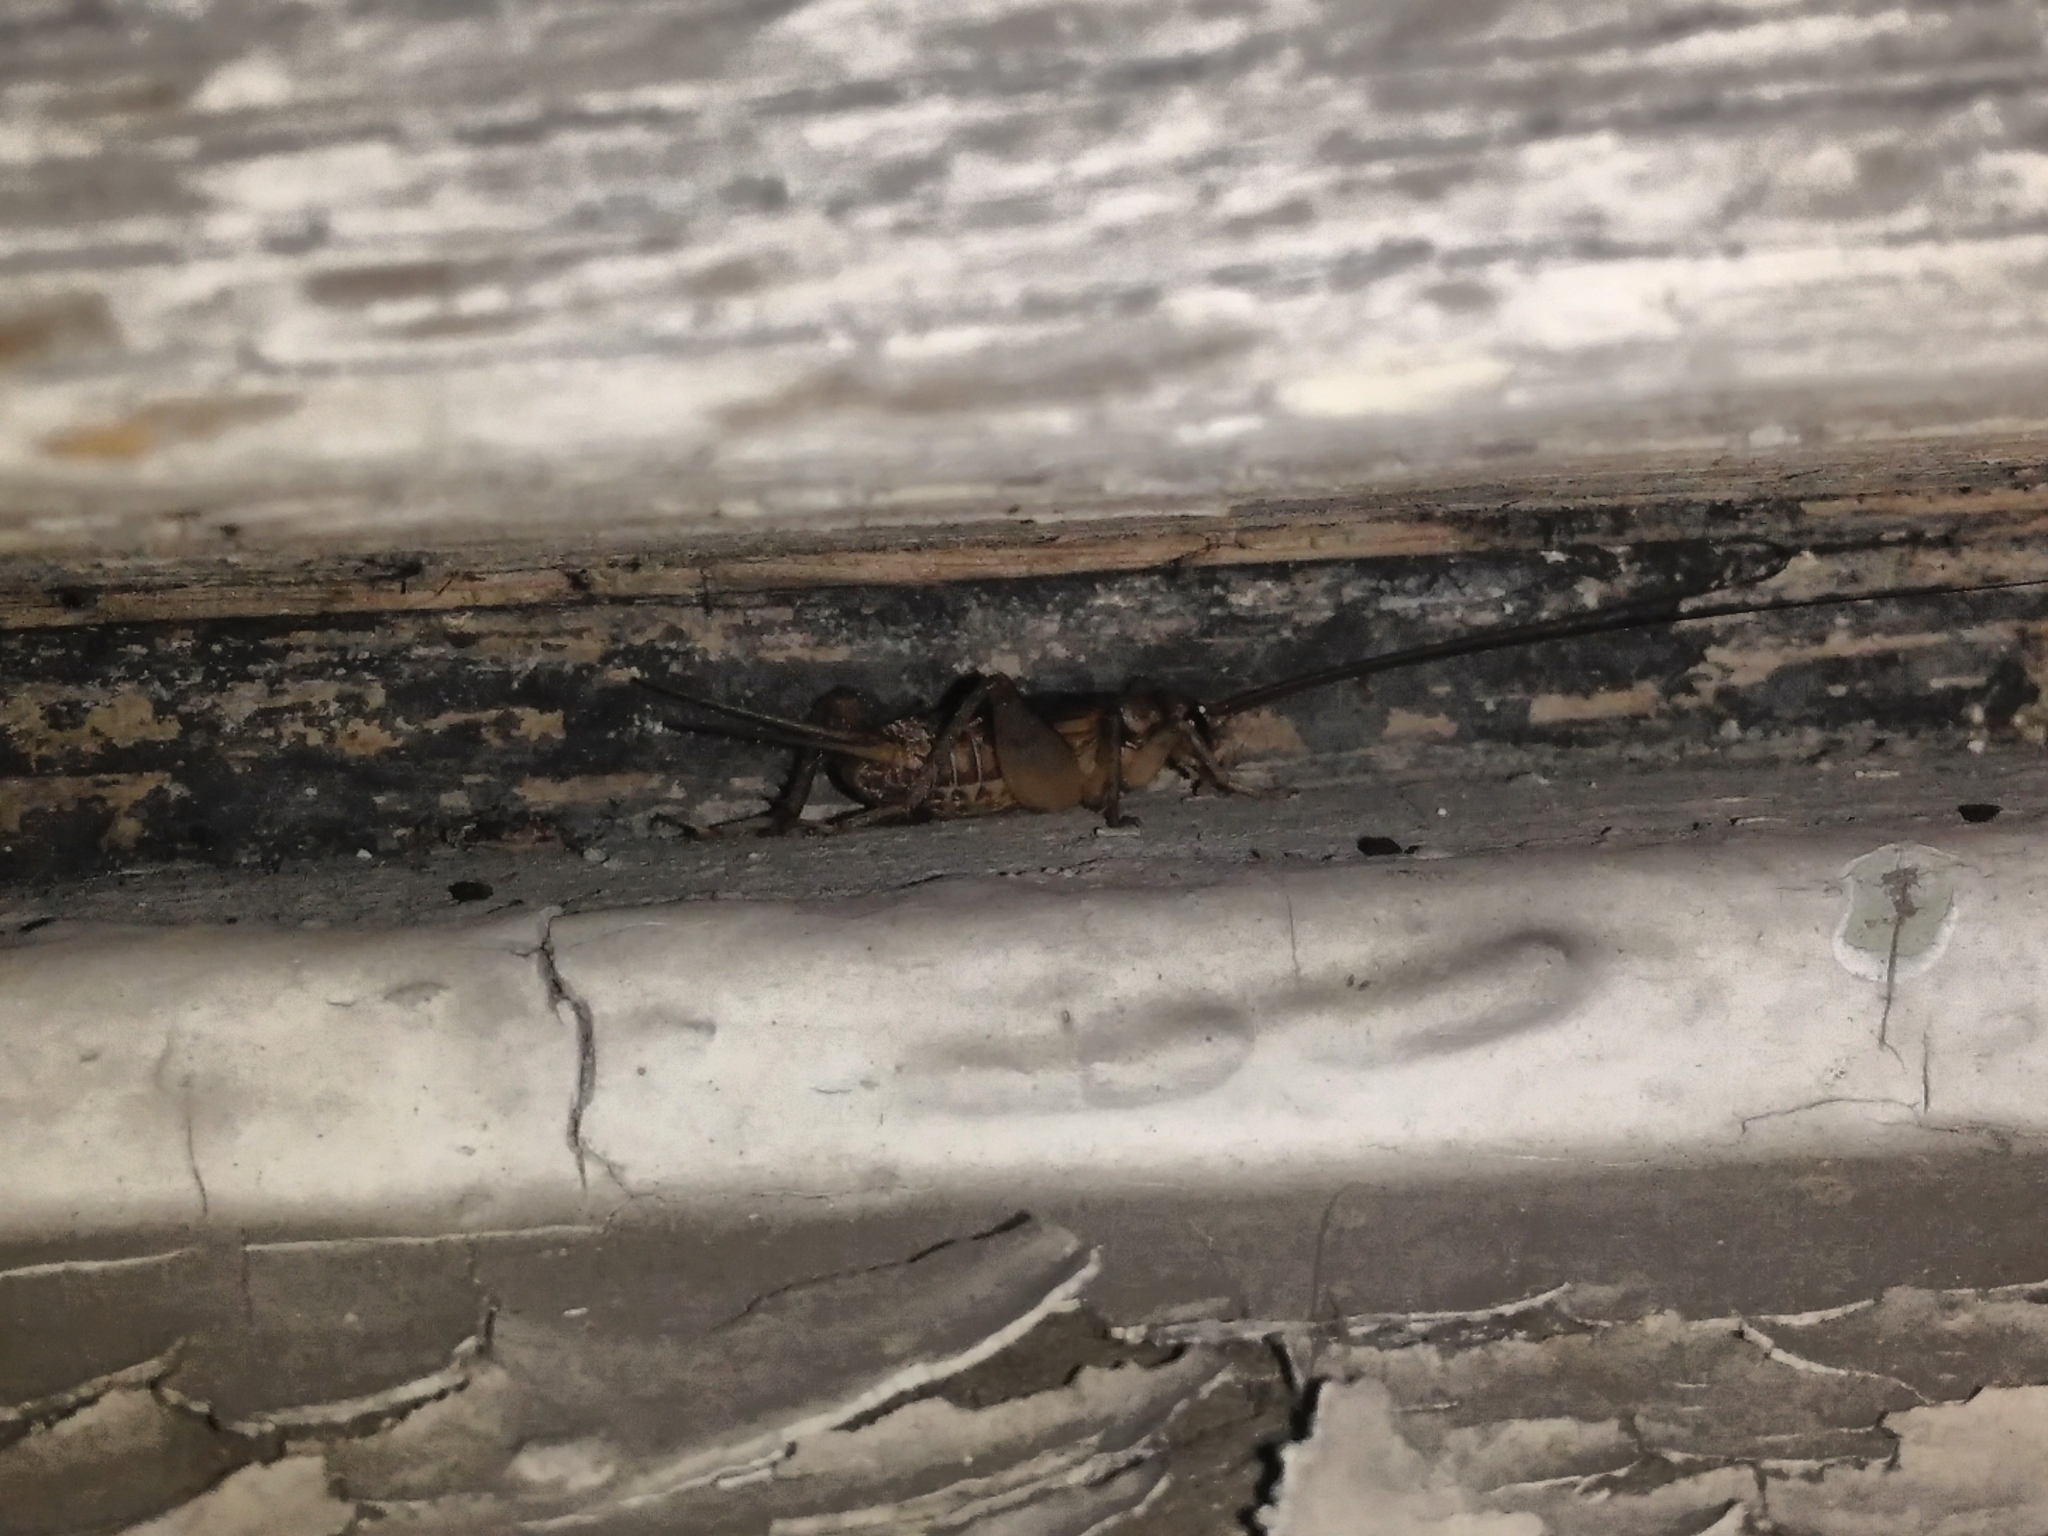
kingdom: Animalia
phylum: Arthropoda
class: Insecta
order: Orthoptera
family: Gryllidae
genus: Acheta
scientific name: Acheta domesticus
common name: House cricket
